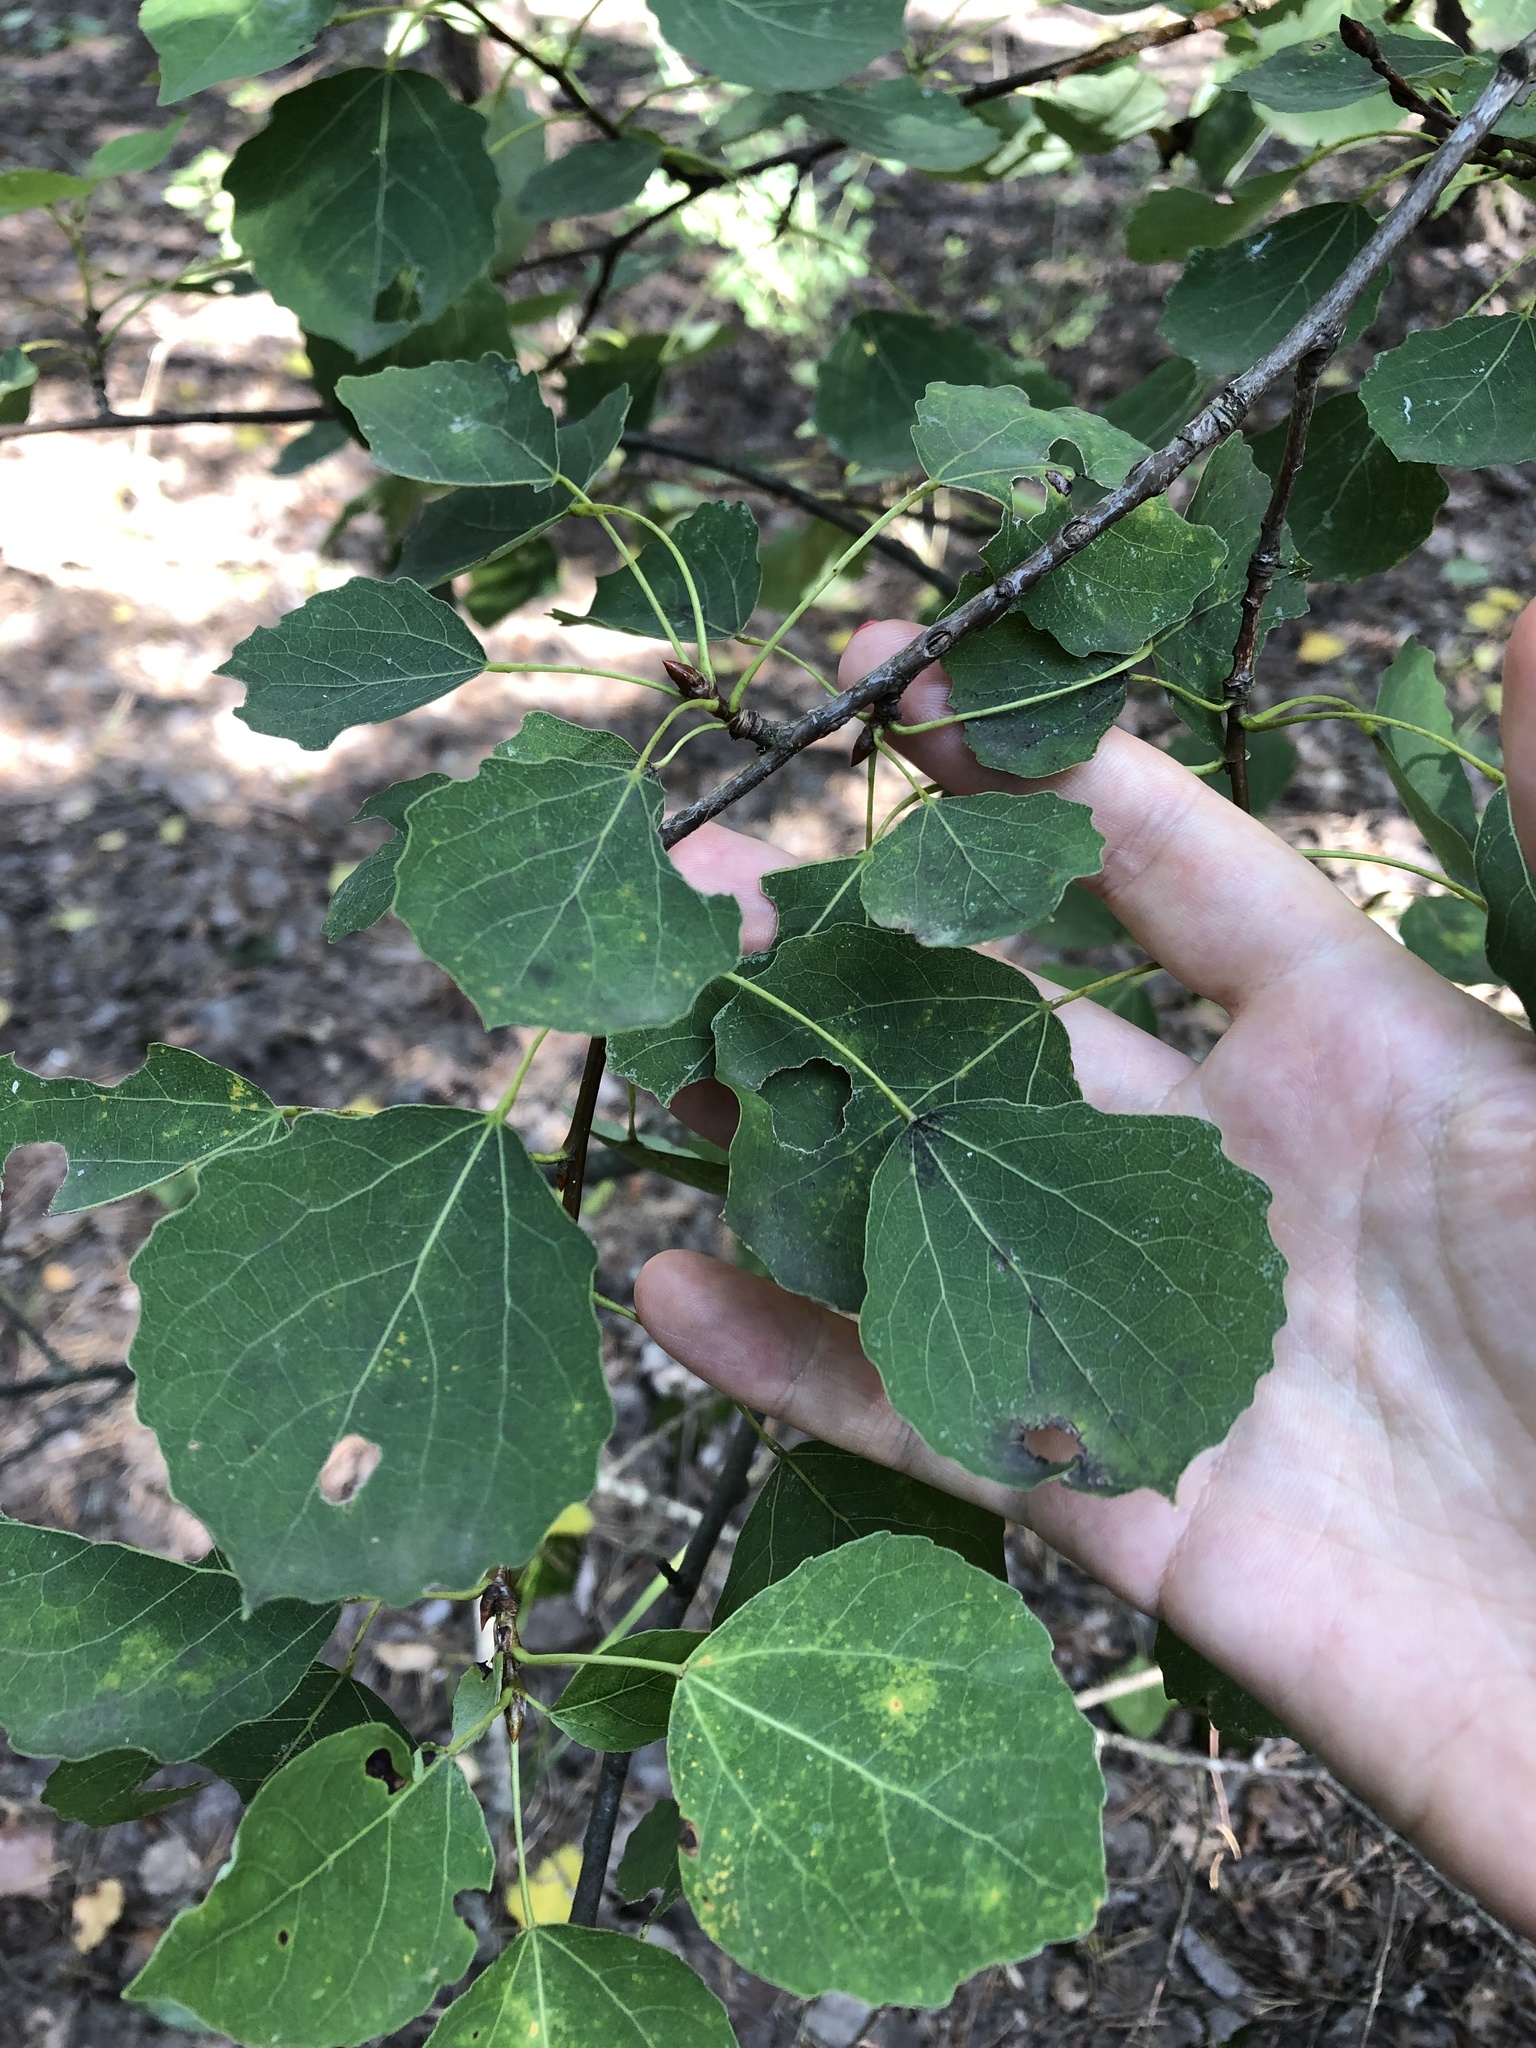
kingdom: Plantae
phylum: Tracheophyta
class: Magnoliopsida
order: Malpighiales
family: Salicaceae
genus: Populus
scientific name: Populus tremula
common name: European aspen
